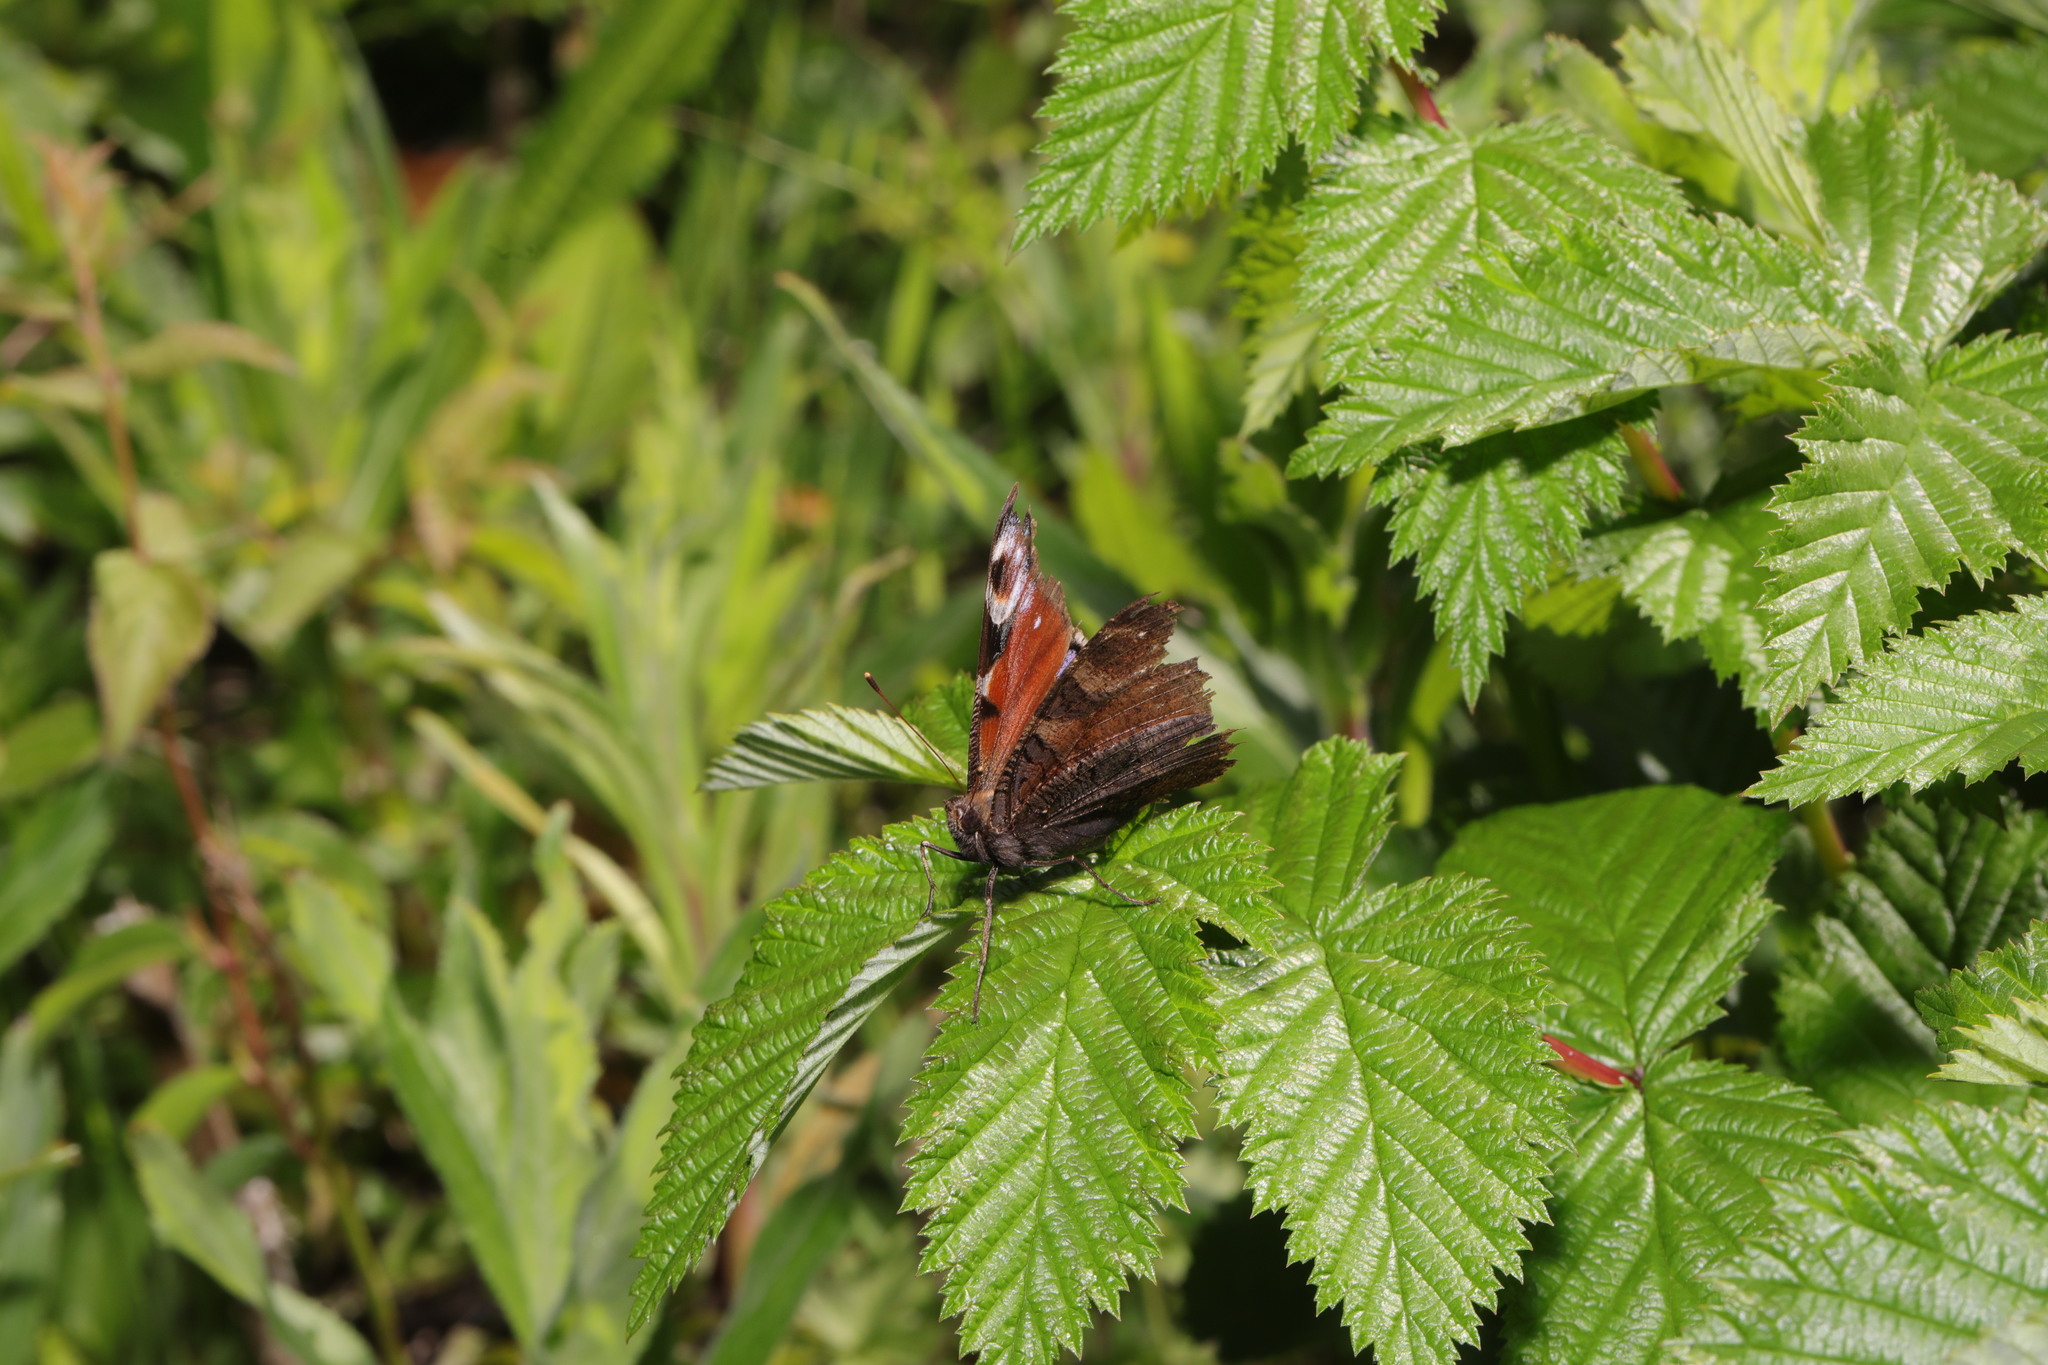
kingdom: Animalia
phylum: Arthropoda
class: Insecta
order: Lepidoptera
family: Nymphalidae
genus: Aglais
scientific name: Aglais io
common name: Peacock
